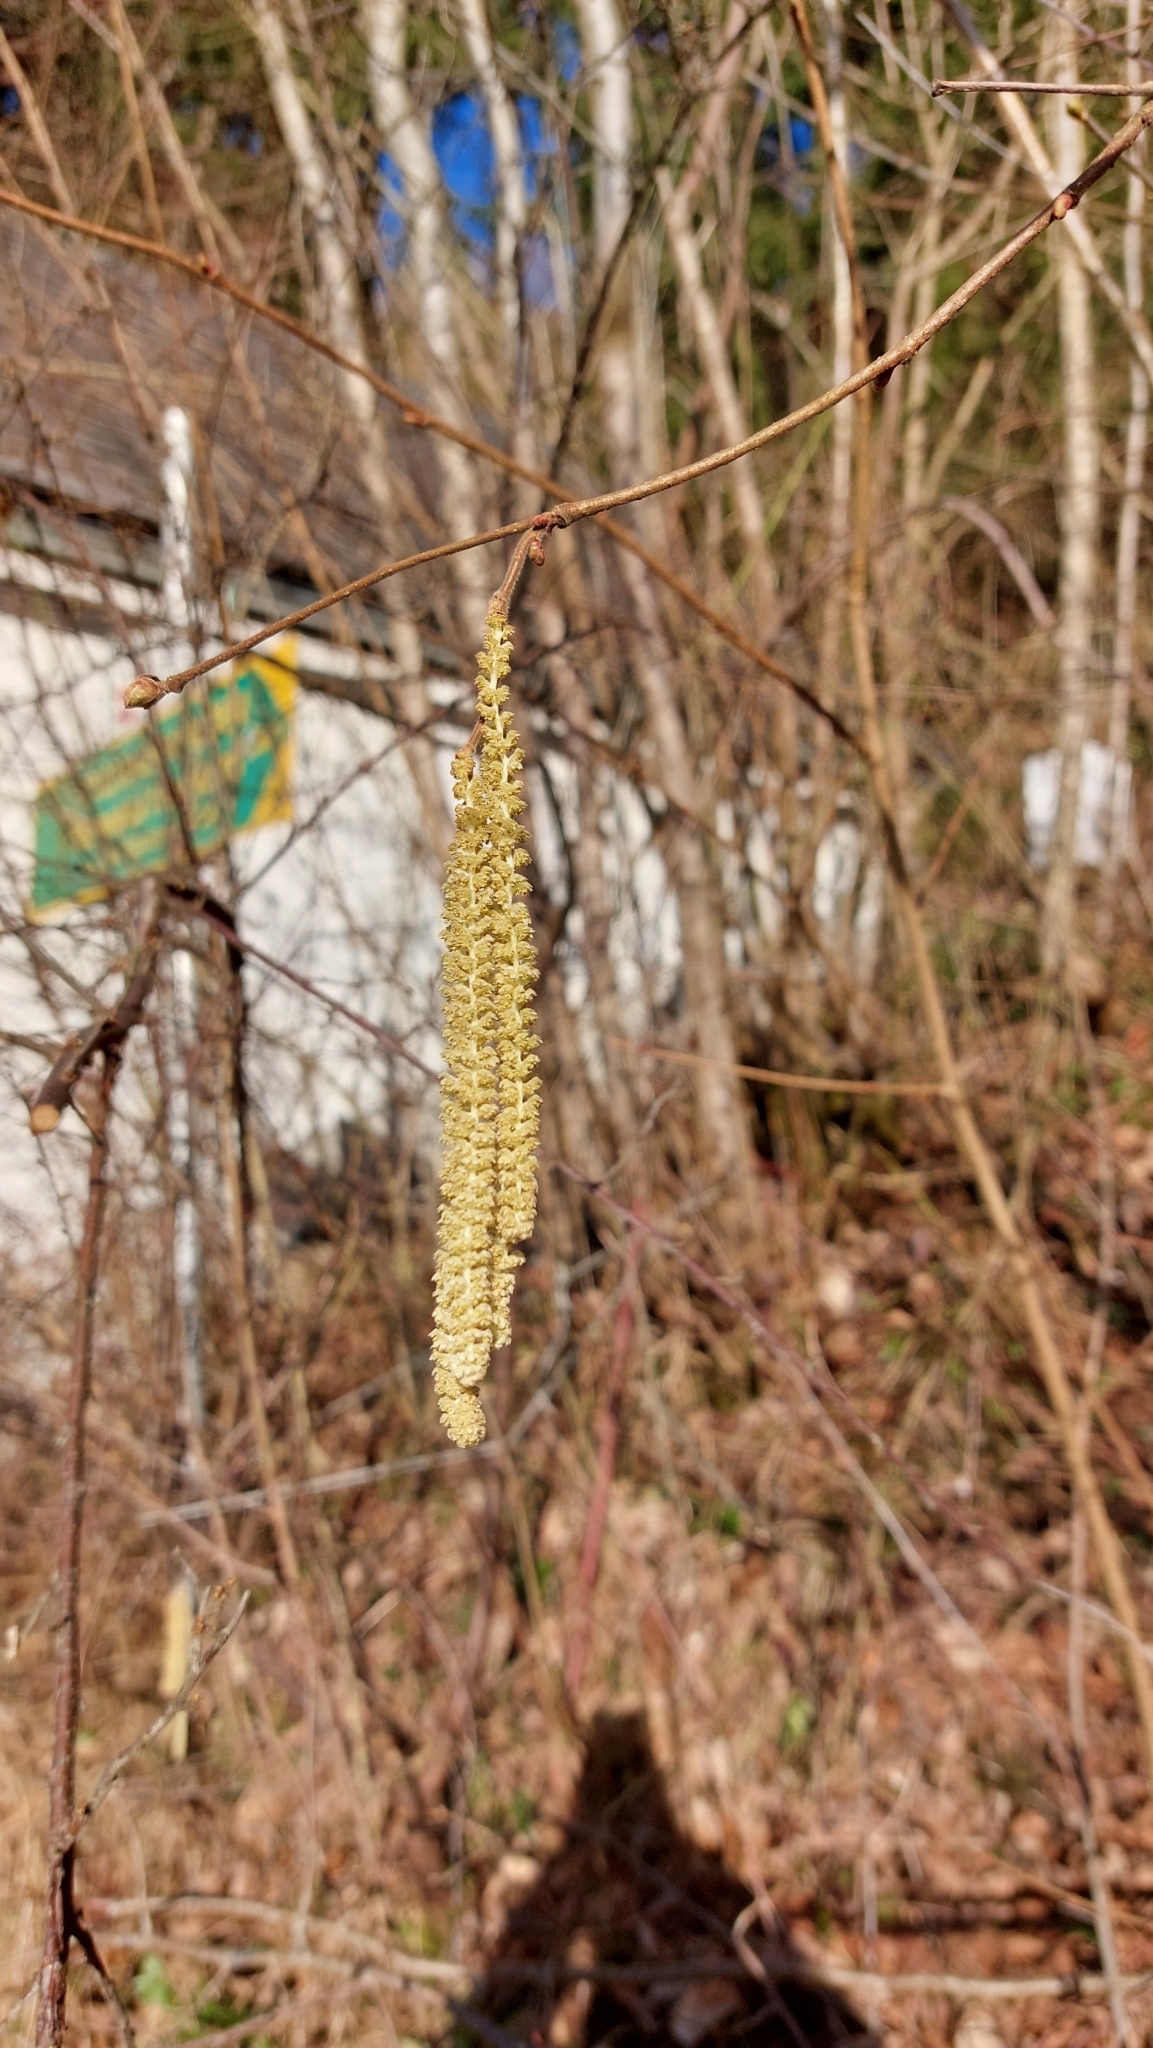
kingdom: Plantae
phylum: Tracheophyta
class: Magnoliopsida
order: Fagales
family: Betulaceae
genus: Corylus
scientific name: Corylus avellana
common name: European hazel
